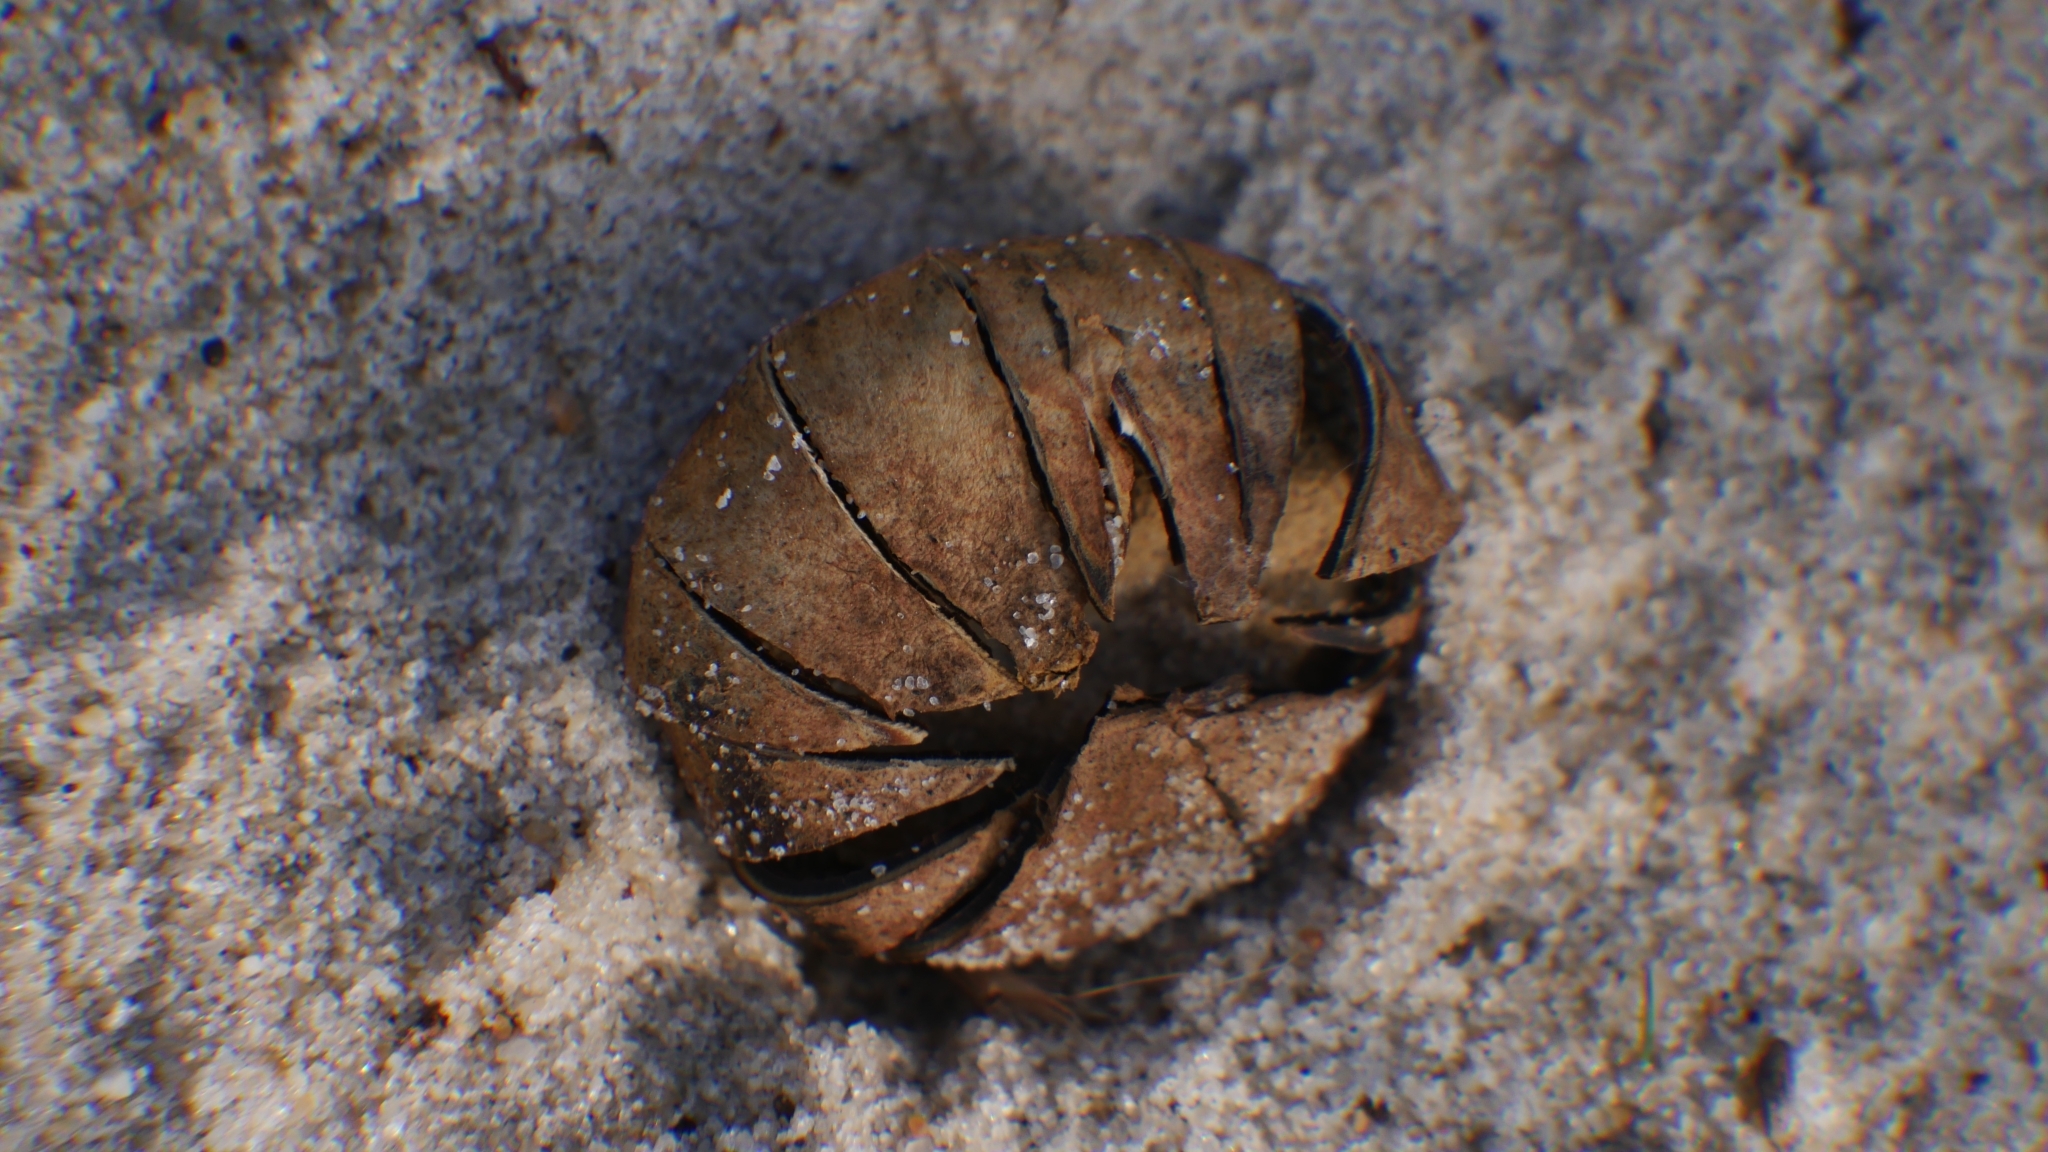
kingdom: Fungi
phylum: Basidiomycota
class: Agaricomycetes
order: Boletales
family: Diplocystidiaceae
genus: Astraeus
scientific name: Astraeus morganii
